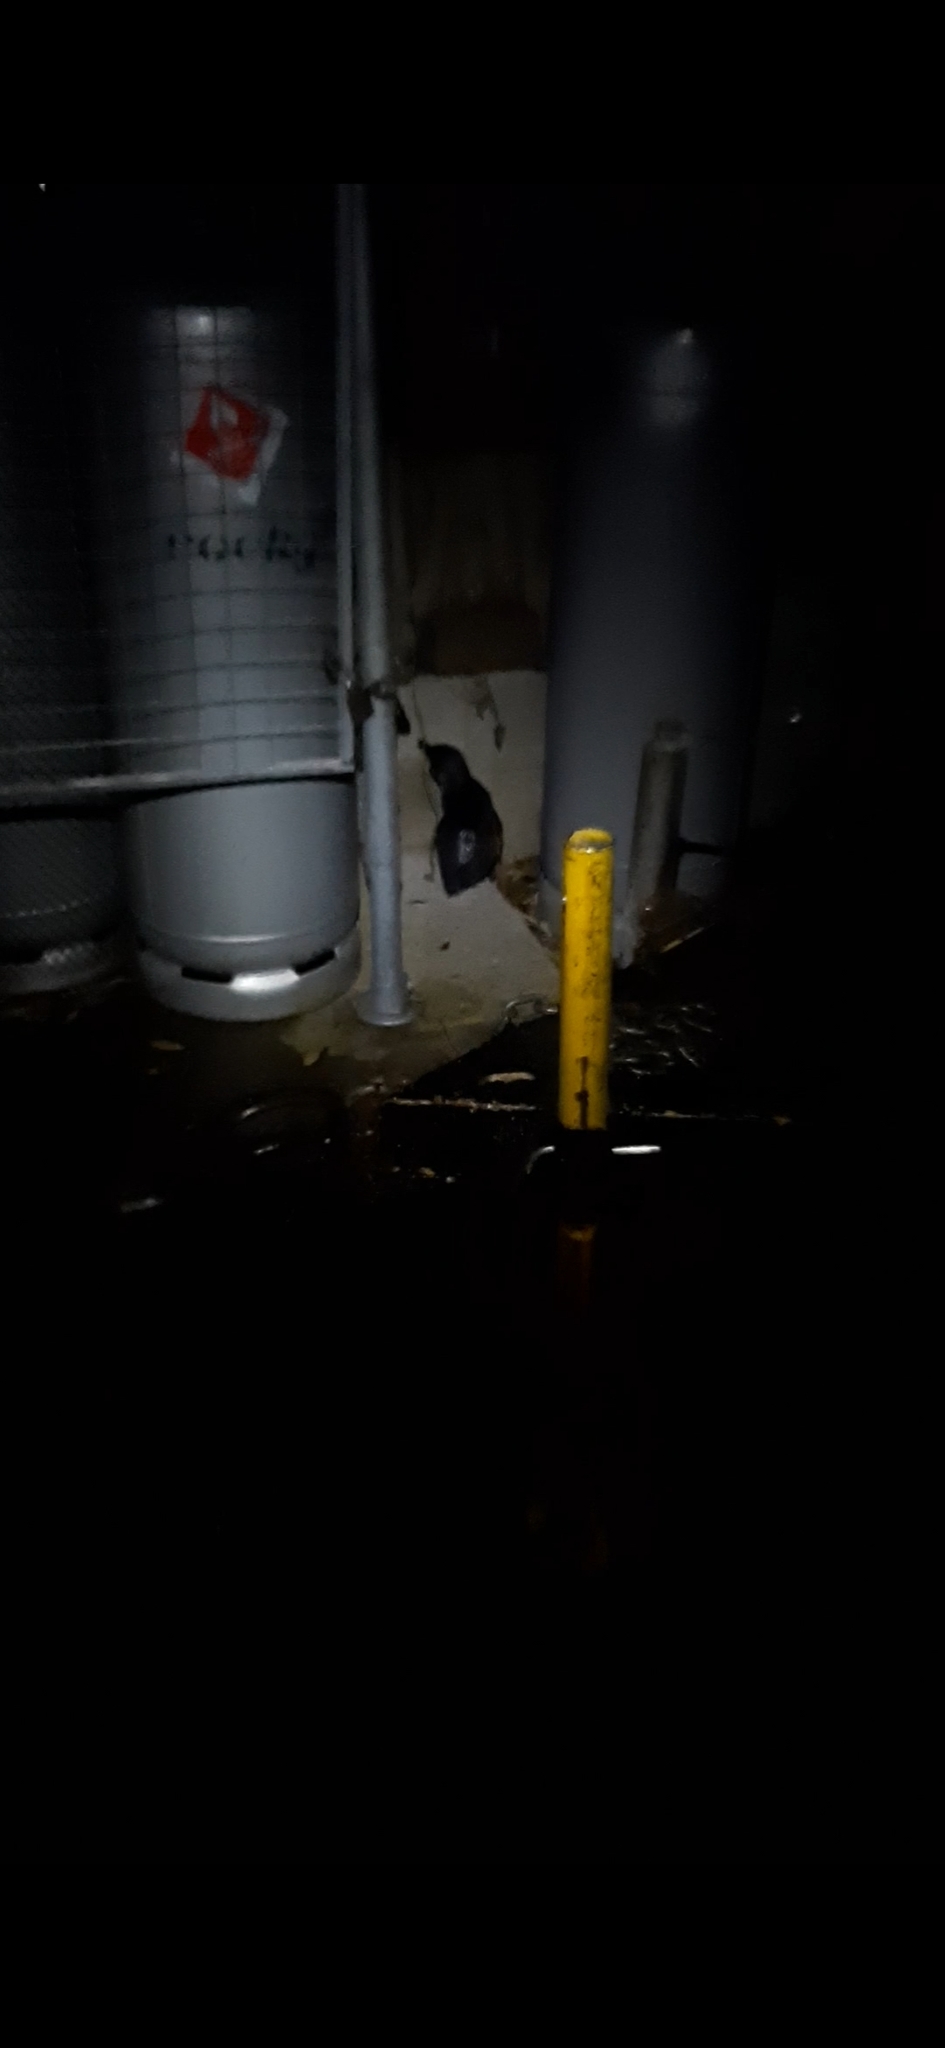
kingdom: Animalia
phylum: Chordata
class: Aves
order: Sphenisciformes
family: Spheniscidae
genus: Eudyptula
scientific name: Eudyptula minor
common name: Little penguin
